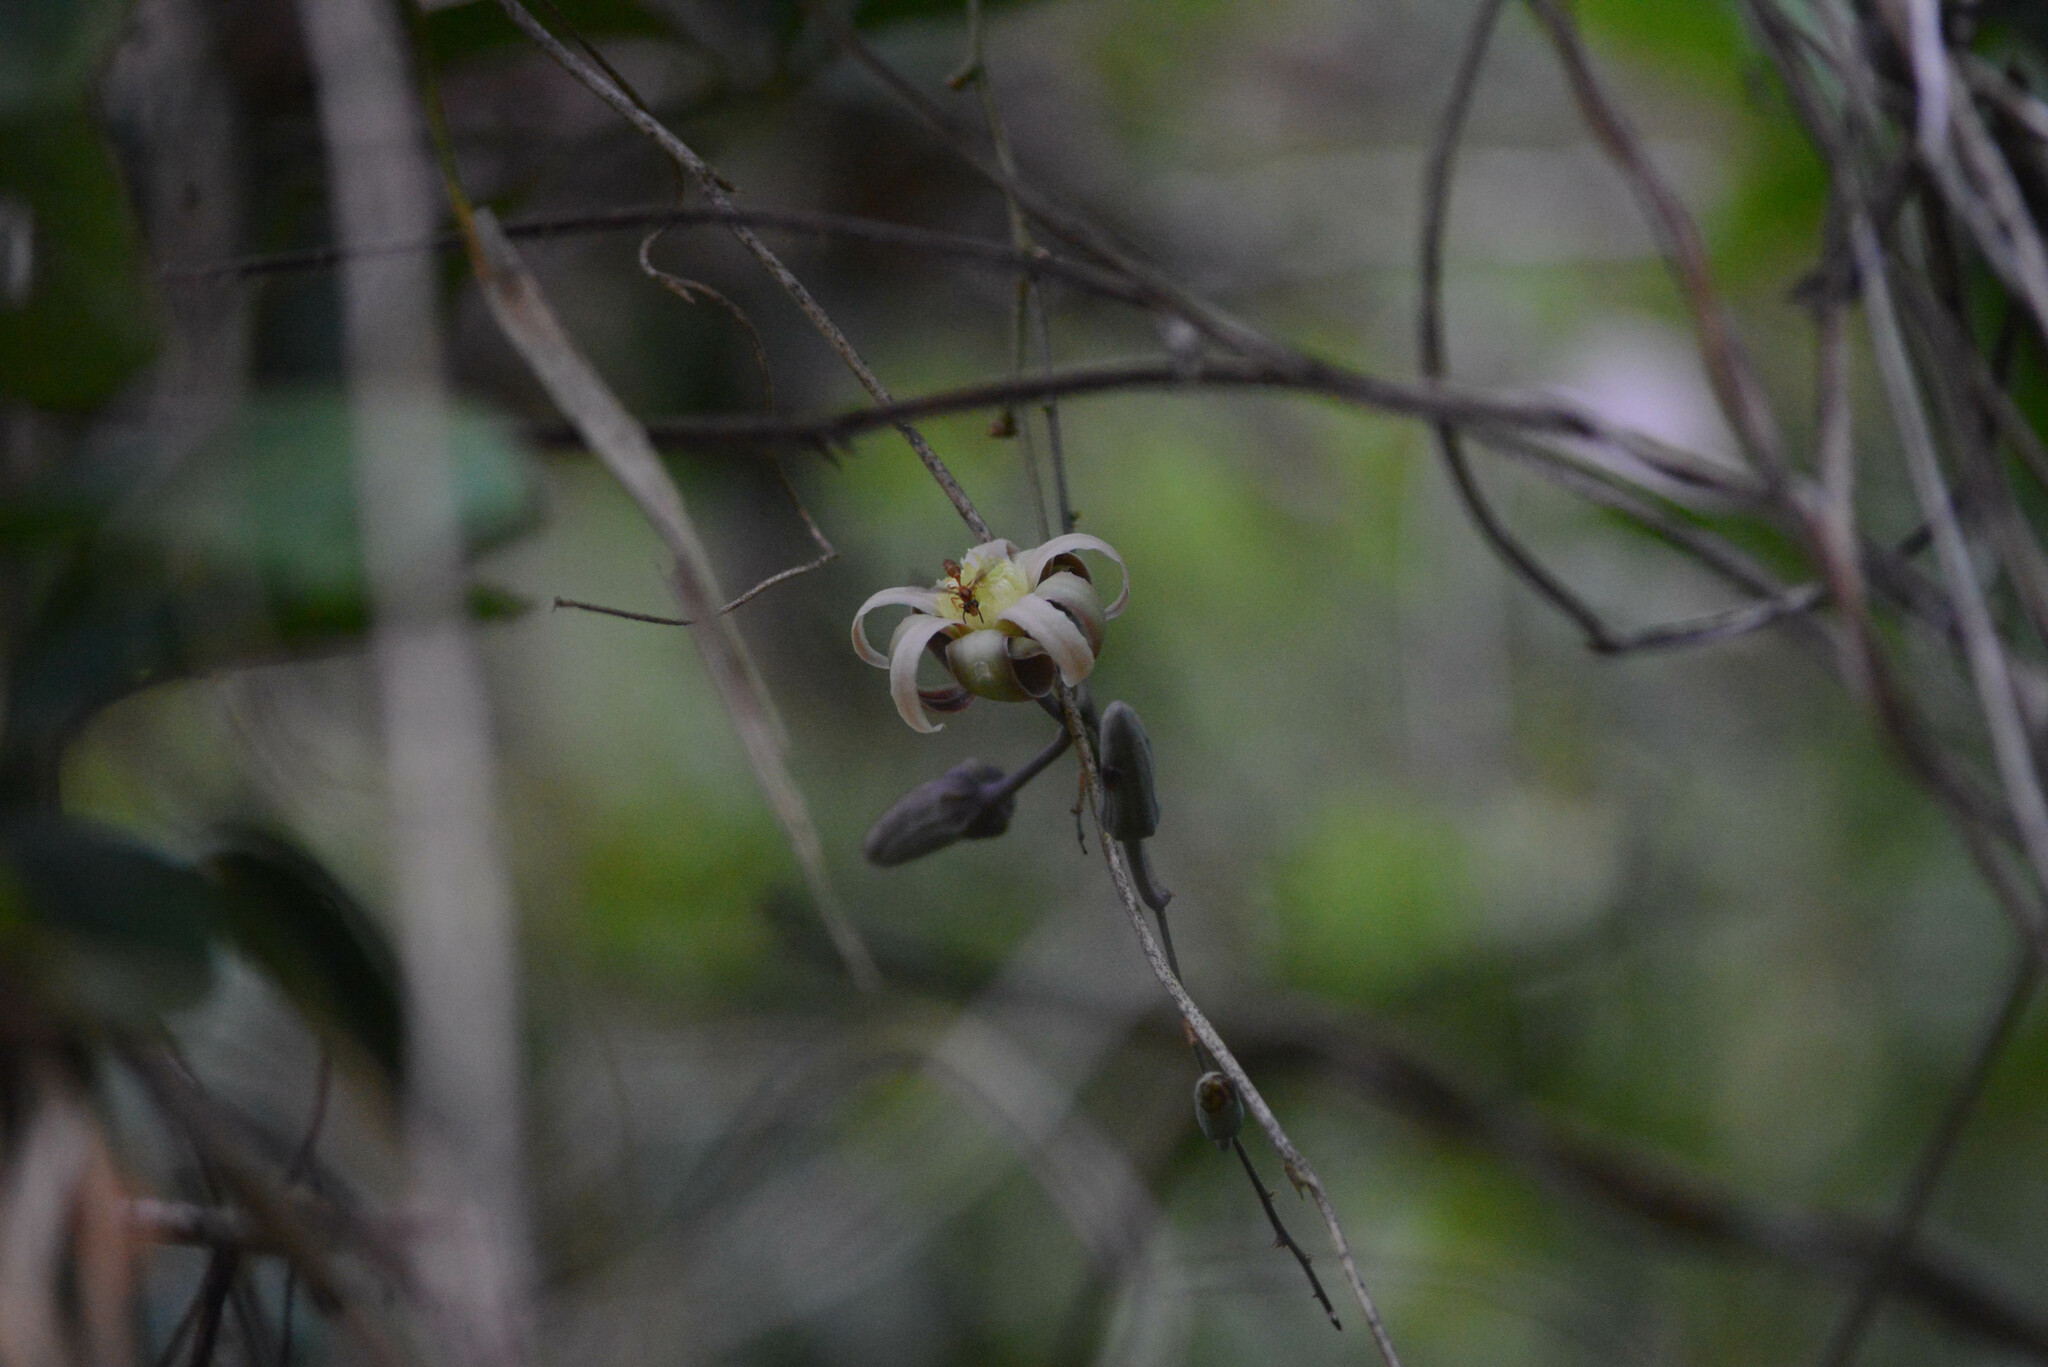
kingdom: Plantae
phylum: Tracheophyta
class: Magnoliopsida
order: Malpighiales
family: Passifloraceae
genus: Passiflora
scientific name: Passiflora contracta
